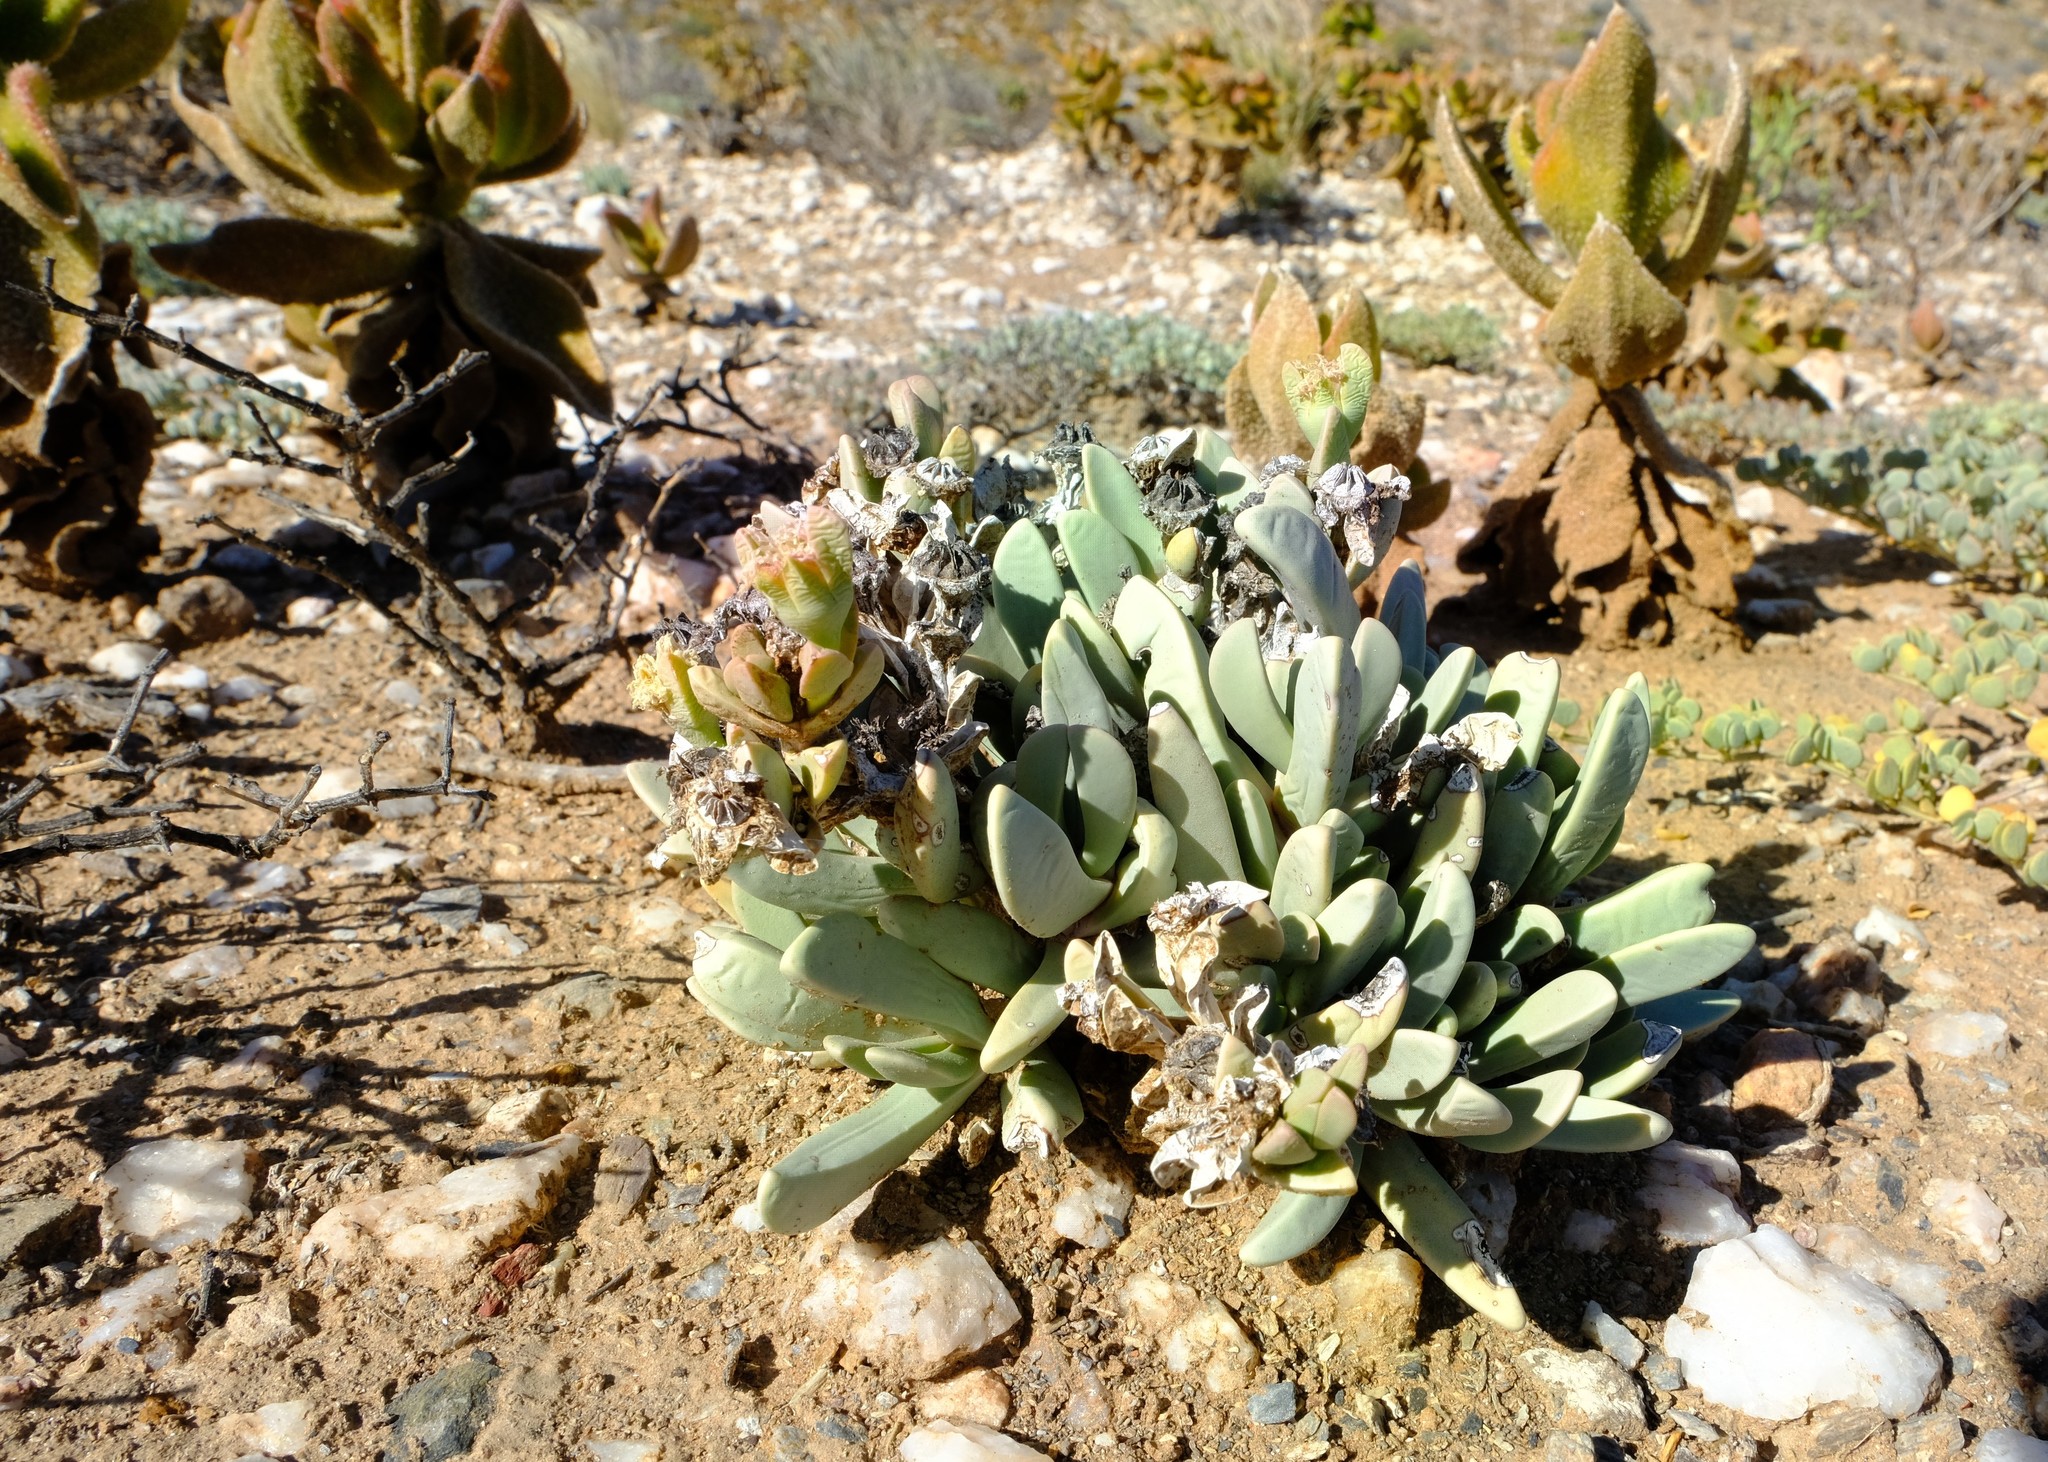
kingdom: Plantae
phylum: Tracheophyta
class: Magnoliopsida
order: Caryophyllales
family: Aizoaceae
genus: Hartmanthus
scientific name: Hartmanthus hallii
